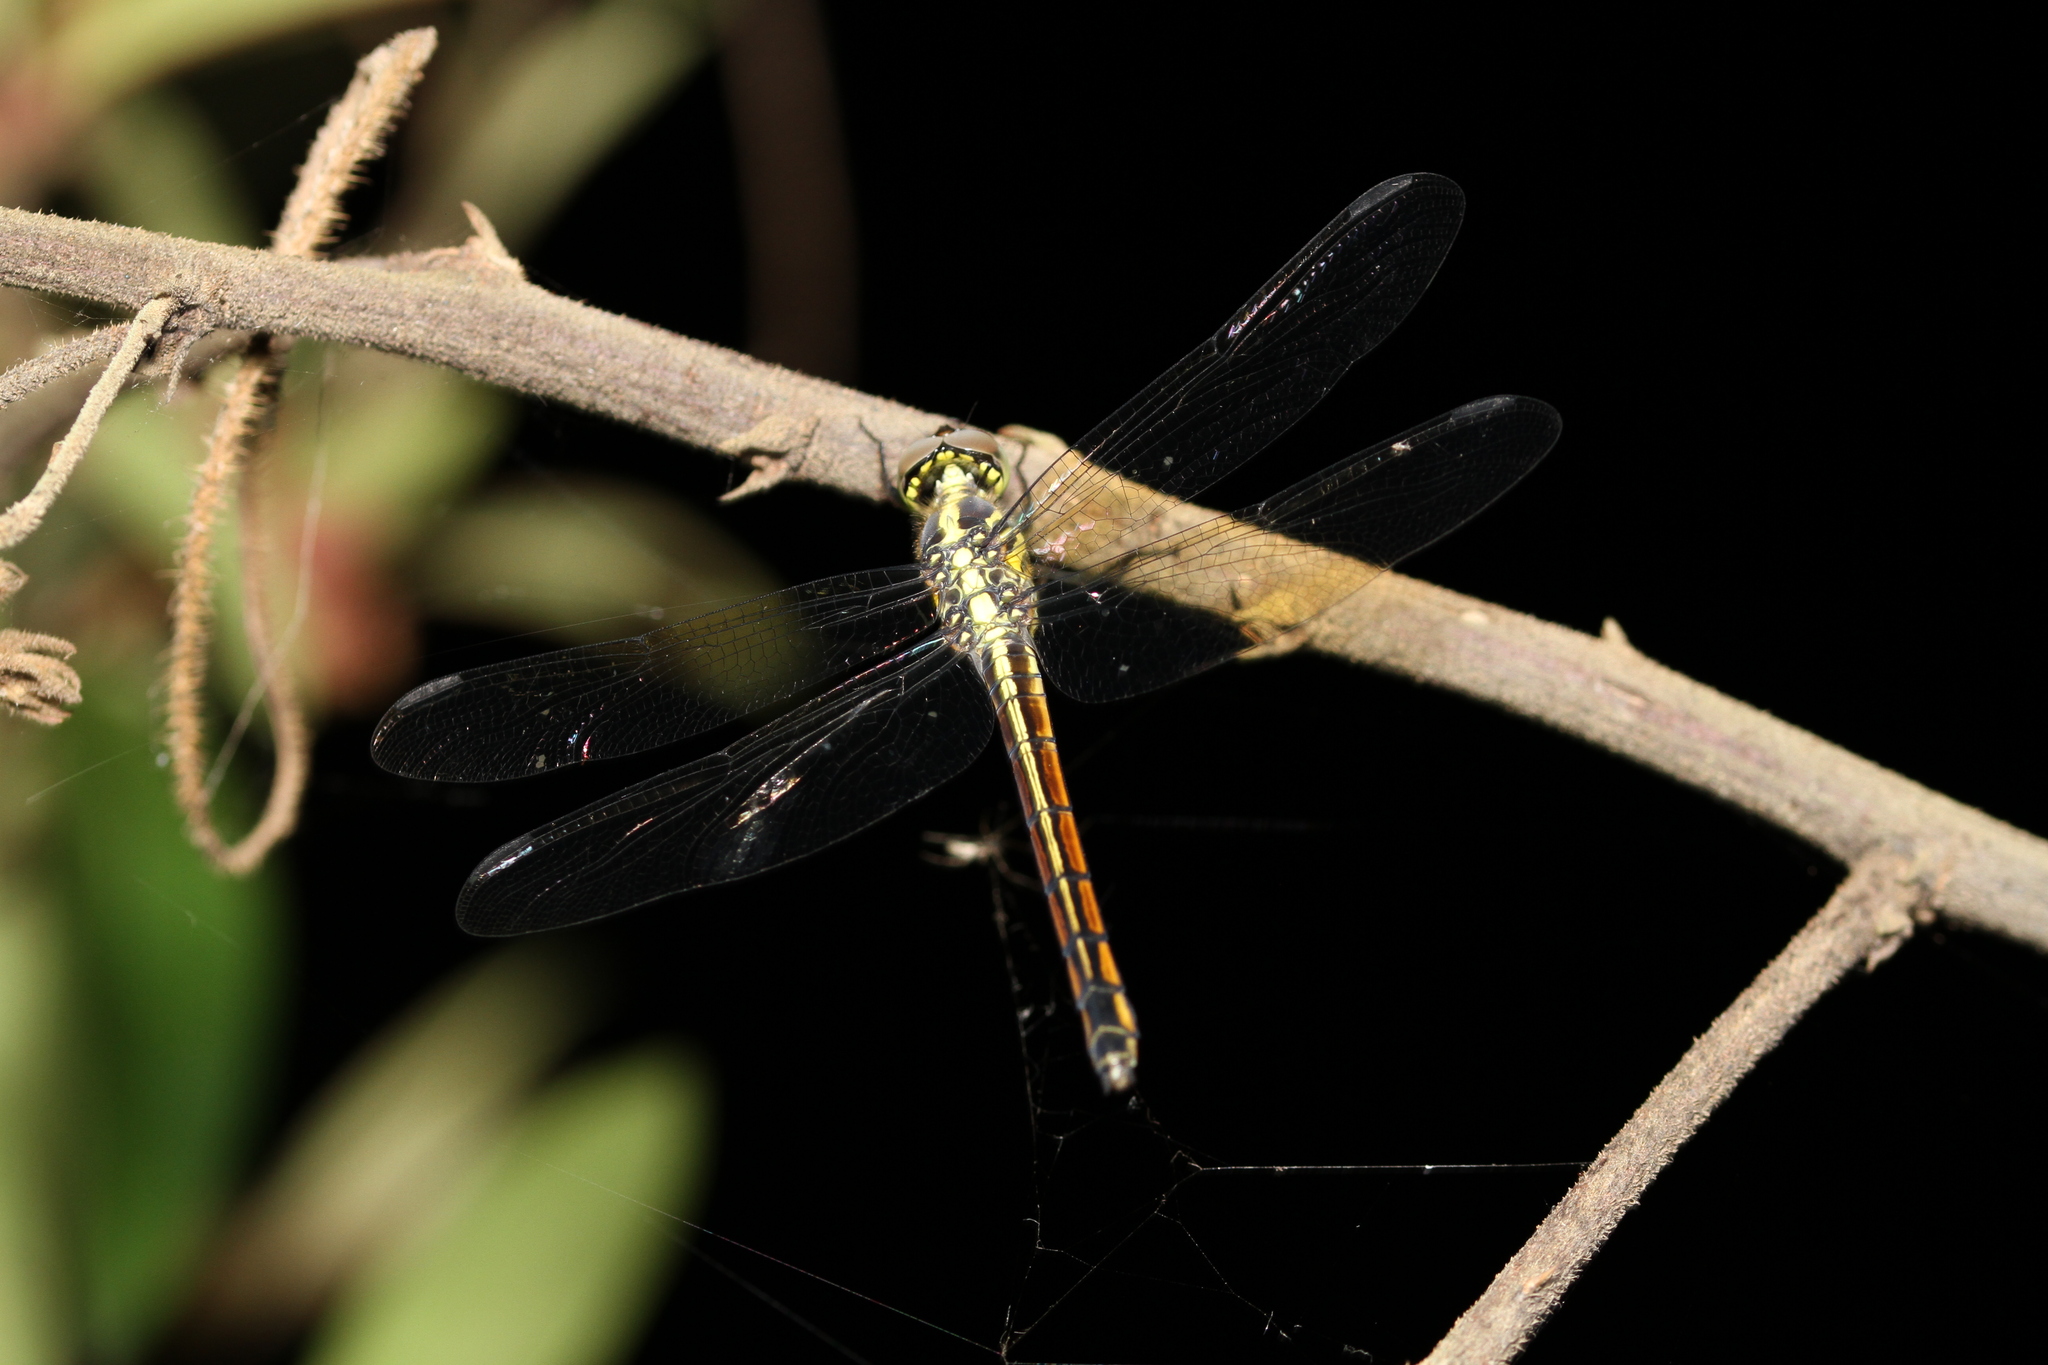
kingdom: Animalia
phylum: Arthropoda
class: Insecta
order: Odonata
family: Libellulidae
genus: Potamarcha
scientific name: Potamarcha congener
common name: Blue chaser
